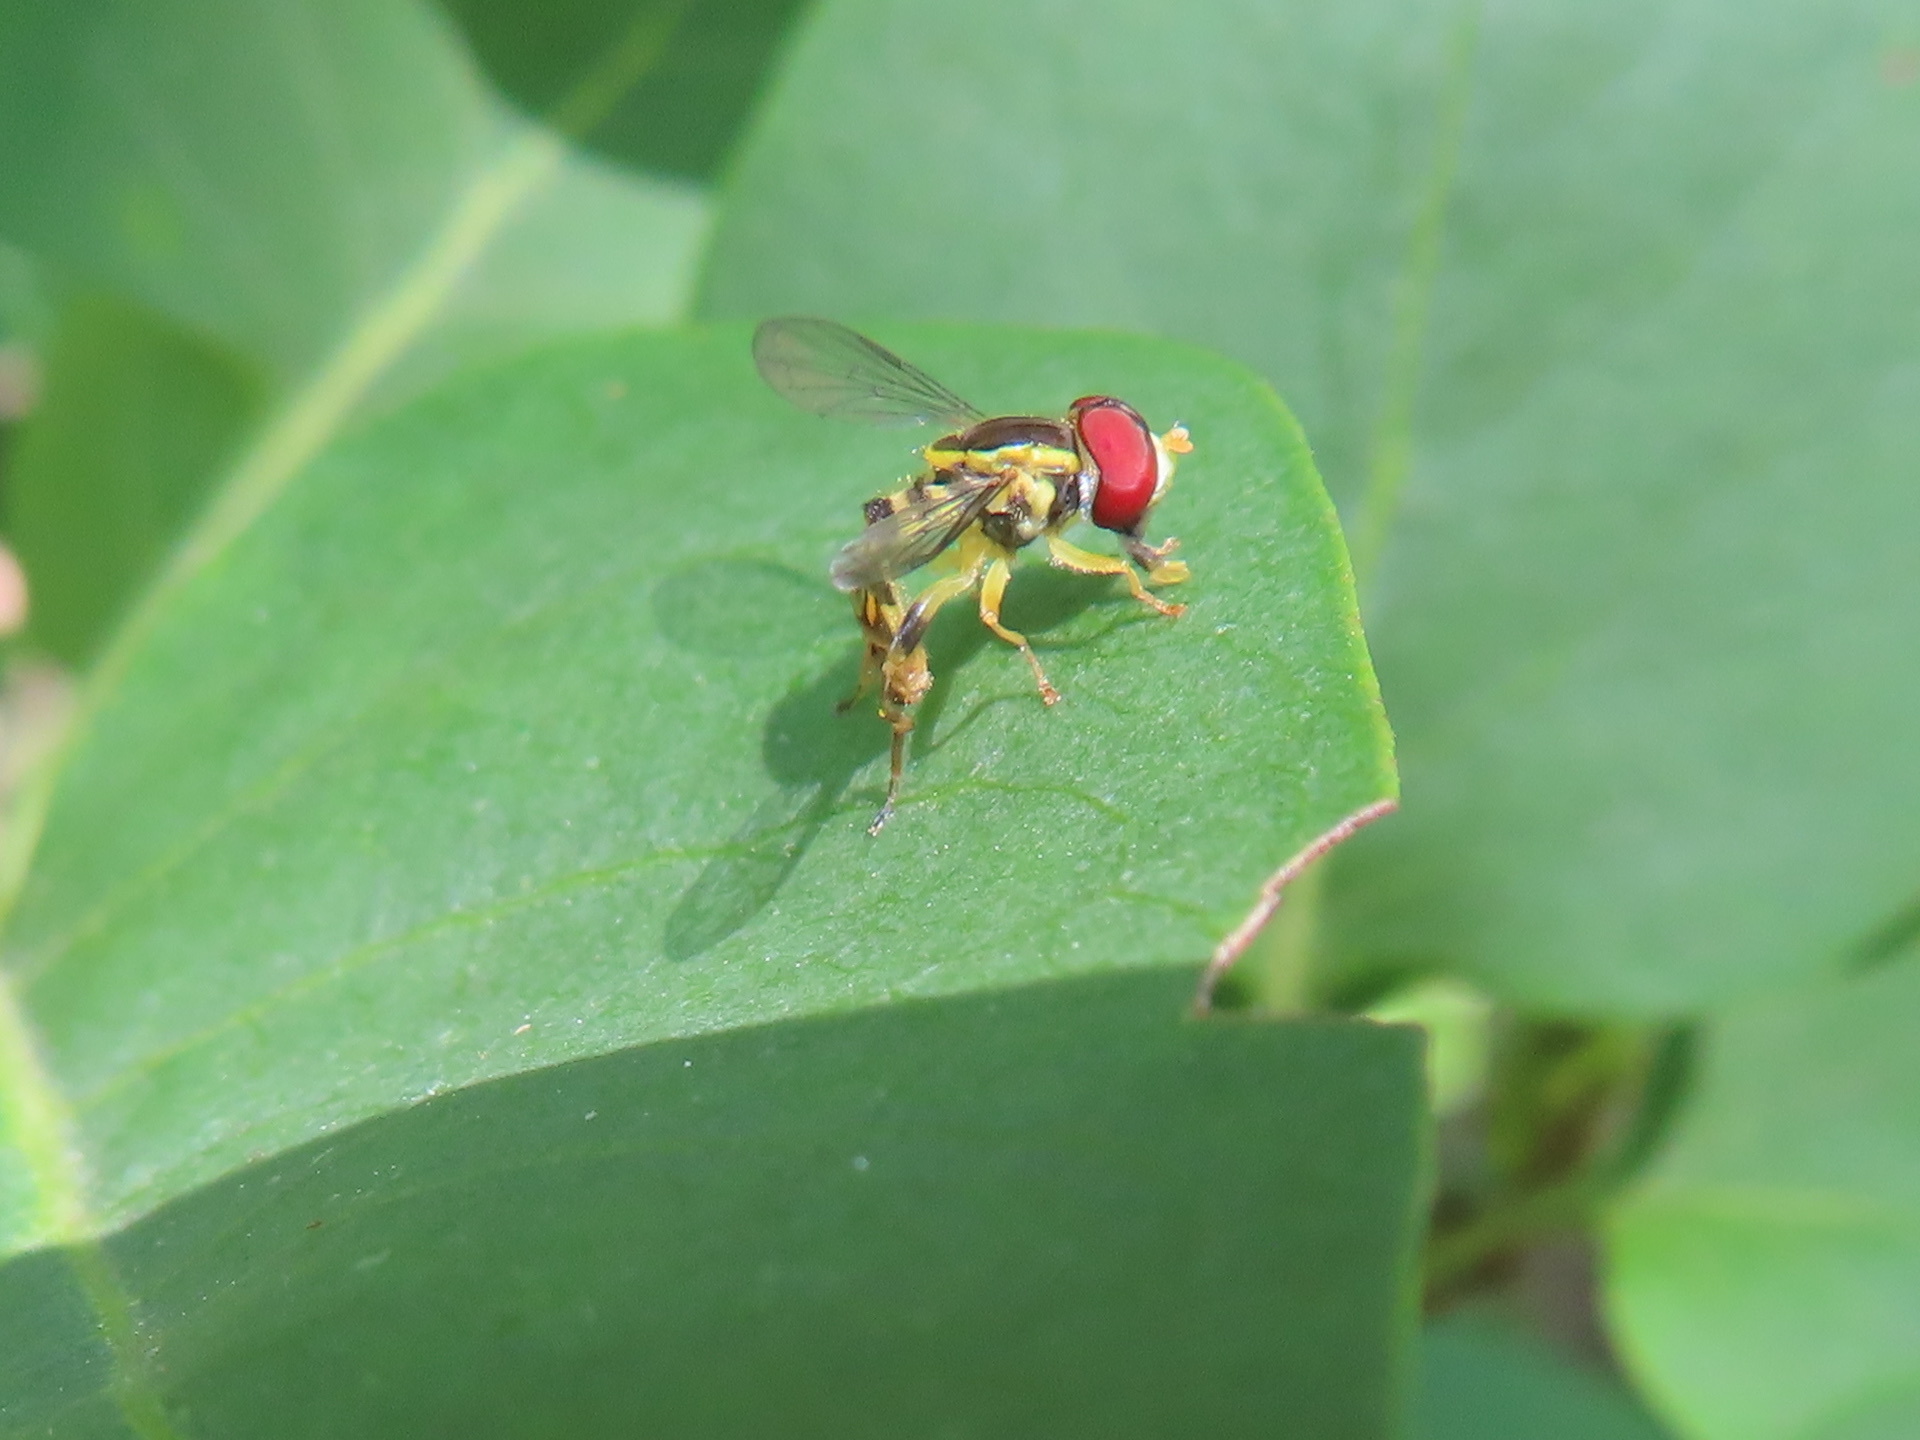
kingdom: Animalia
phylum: Arthropoda
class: Insecta
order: Diptera
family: Syrphidae
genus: Toxomerus
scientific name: Toxomerus geminatus
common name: Eastern calligrapher
